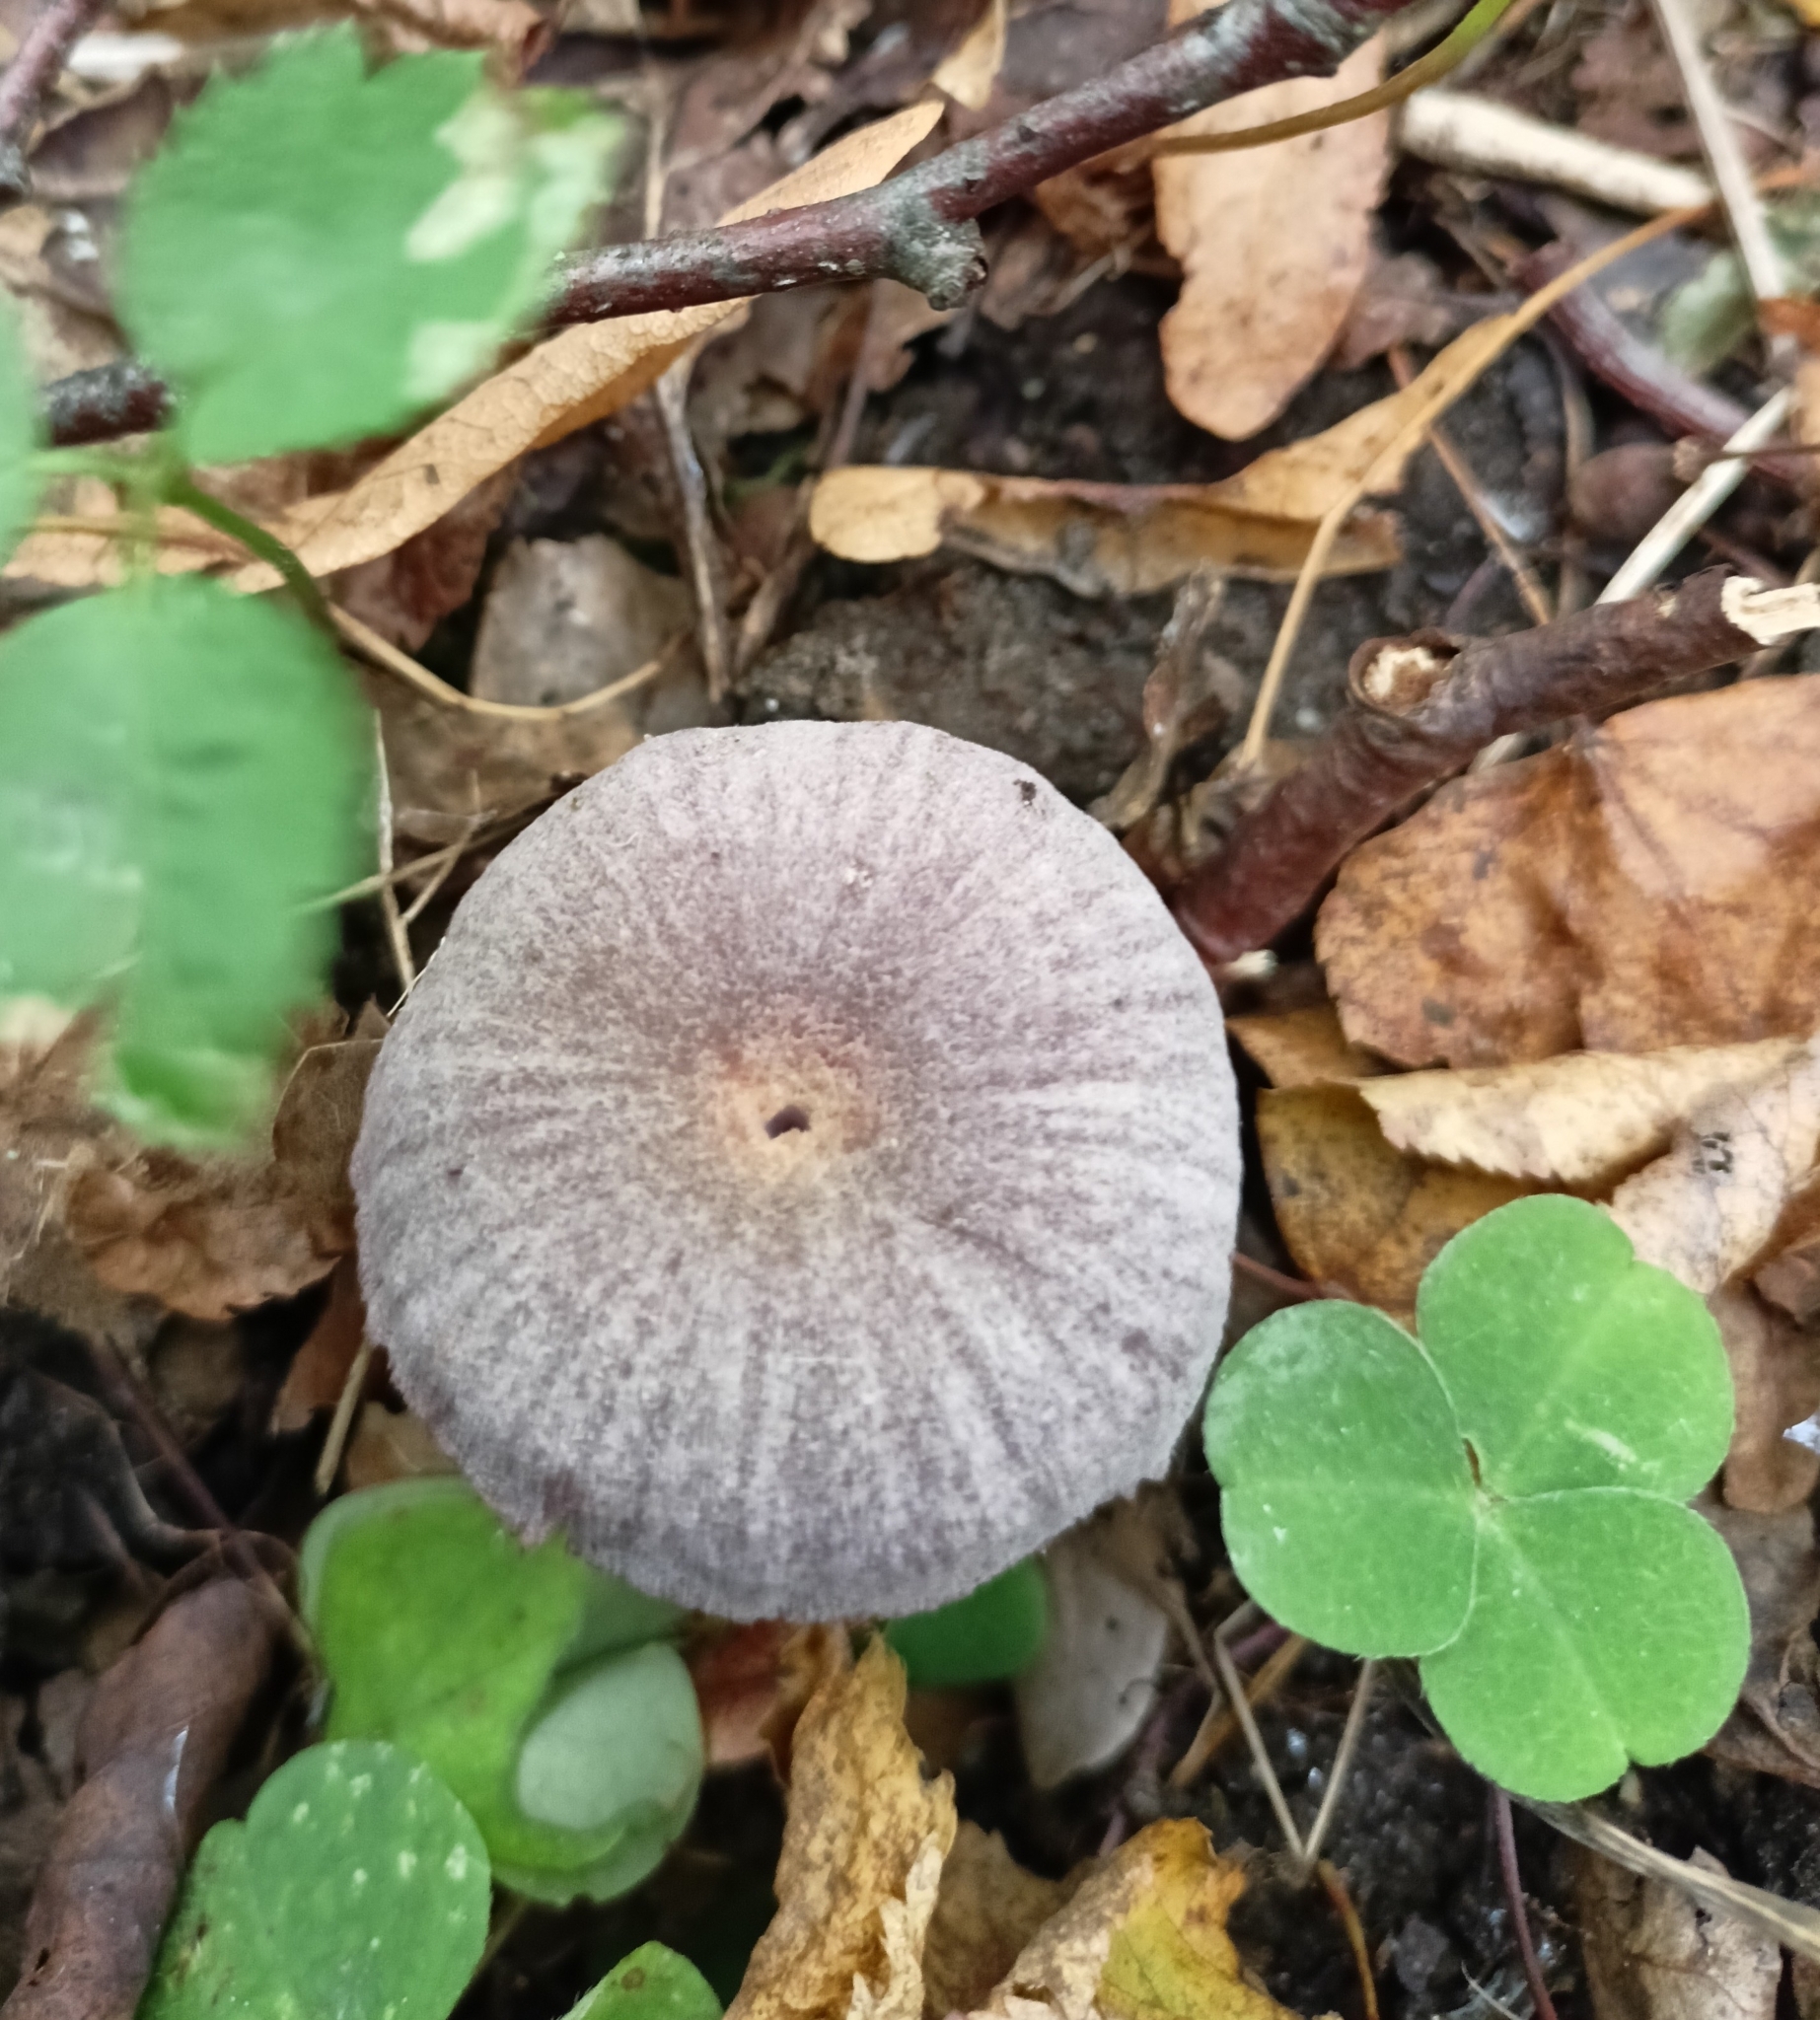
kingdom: Fungi
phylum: Basidiomycota
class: Agaricomycetes
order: Agaricales
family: Hydnangiaceae
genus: Laccaria
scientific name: Laccaria amethystina
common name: Amethyst deceiver
